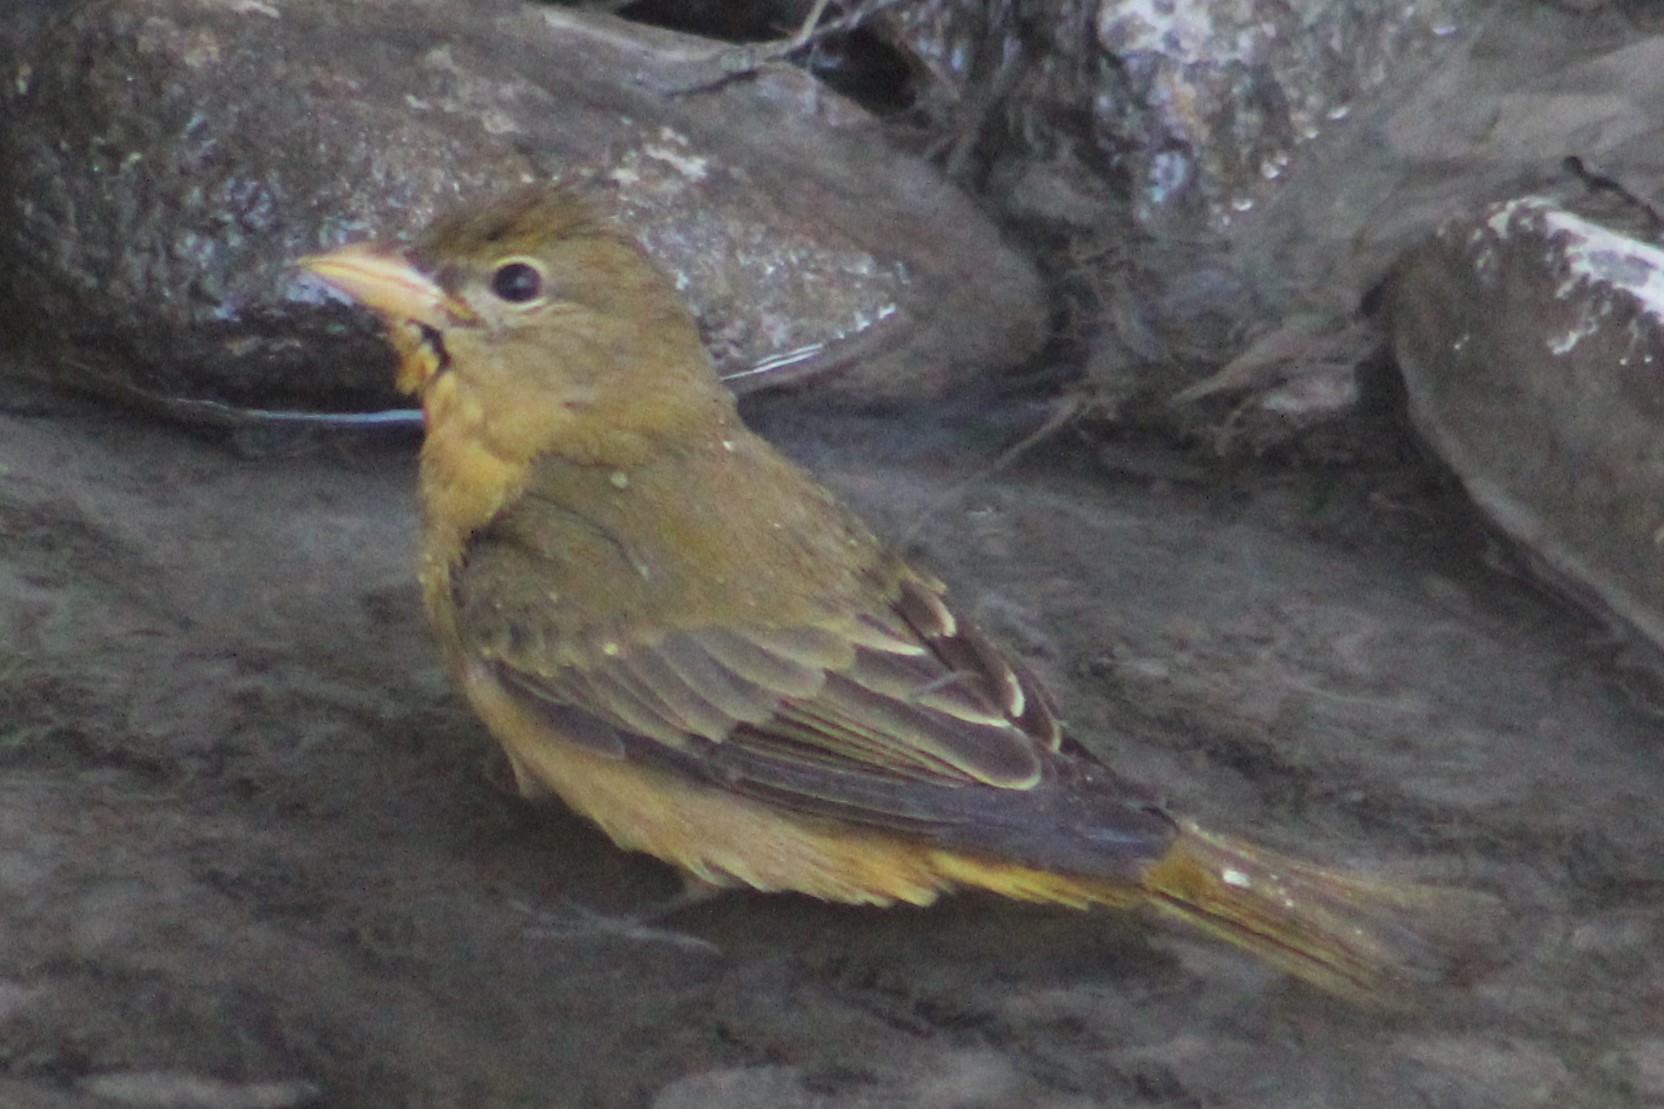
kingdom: Animalia
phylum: Chordata
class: Aves
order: Passeriformes
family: Cardinalidae
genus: Piranga
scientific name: Piranga rubra
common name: Summer tanager
